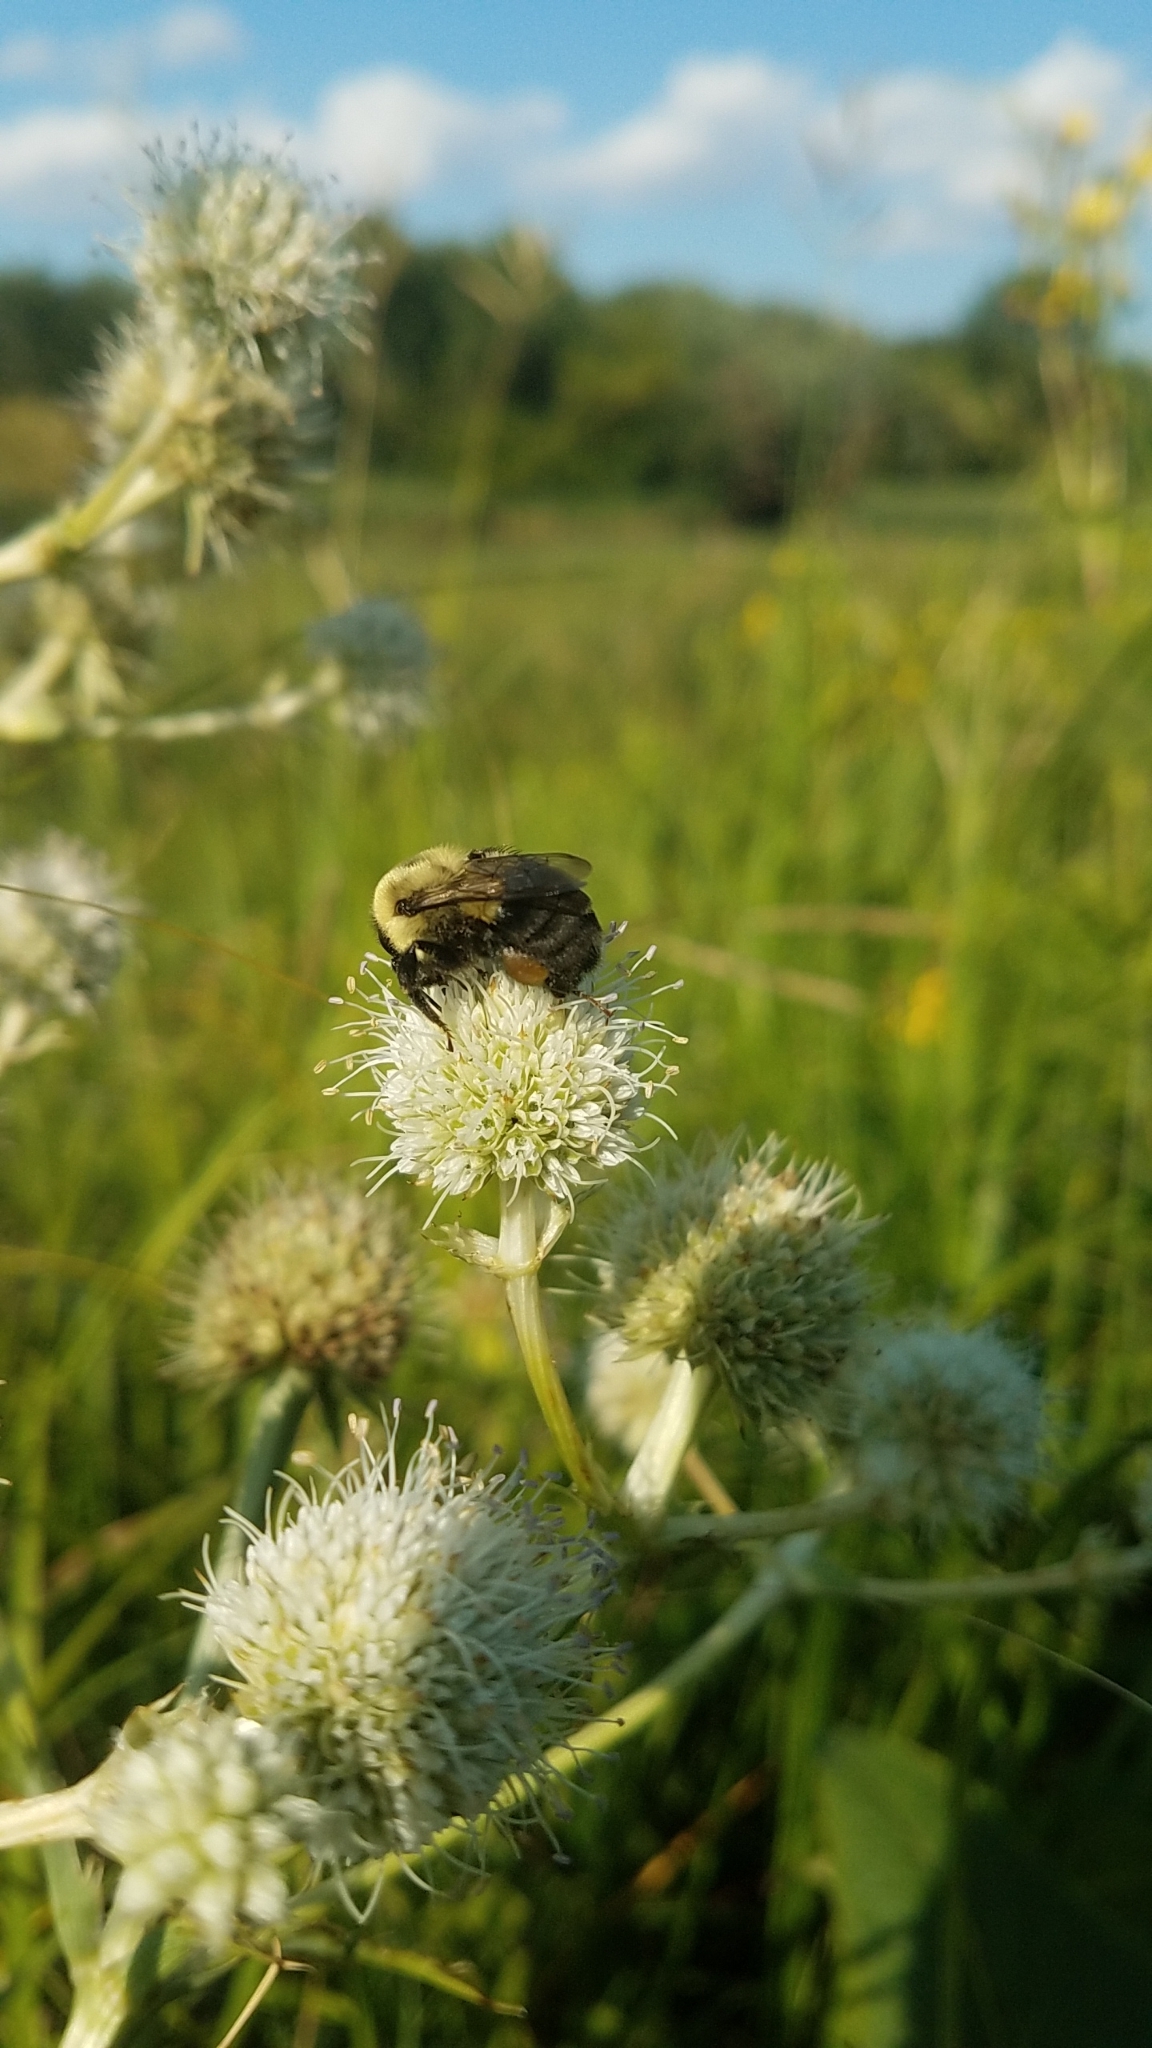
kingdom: Plantae
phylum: Tracheophyta
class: Magnoliopsida
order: Apiales
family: Apiaceae
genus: Eryngium
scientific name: Eryngium yuccifolium
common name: Button eryngo
